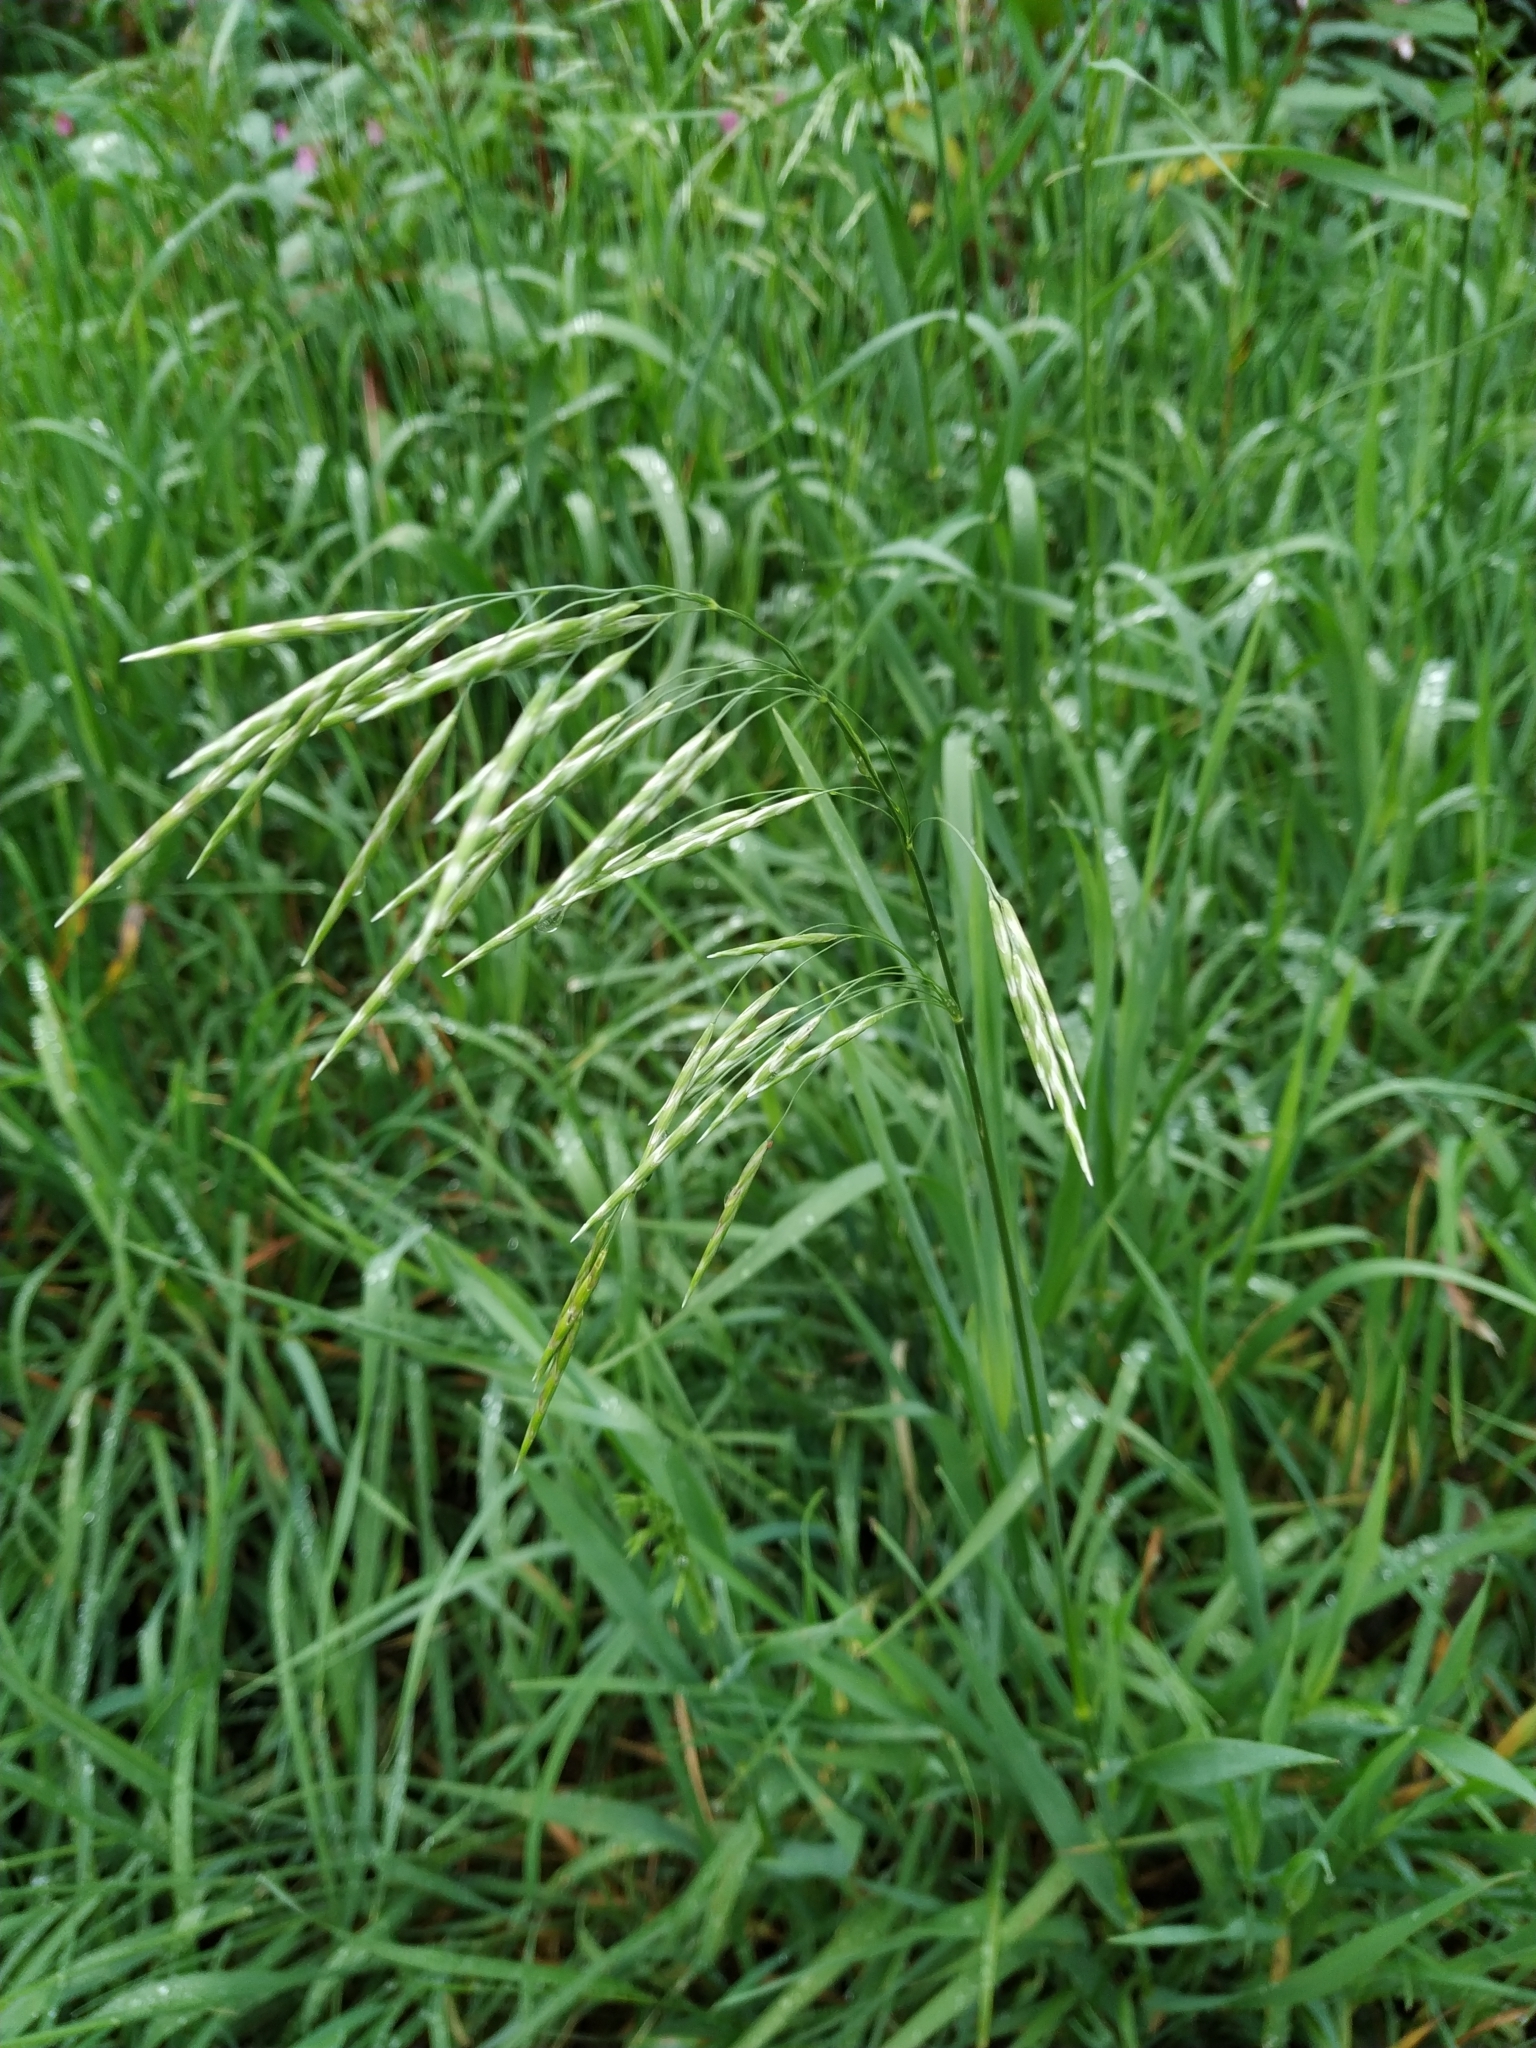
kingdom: Plantae
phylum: Tracheophyta
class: Liliopsida
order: Poales
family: Poaceae
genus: Bromus
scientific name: Bromus inermis
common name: Smooth brome
